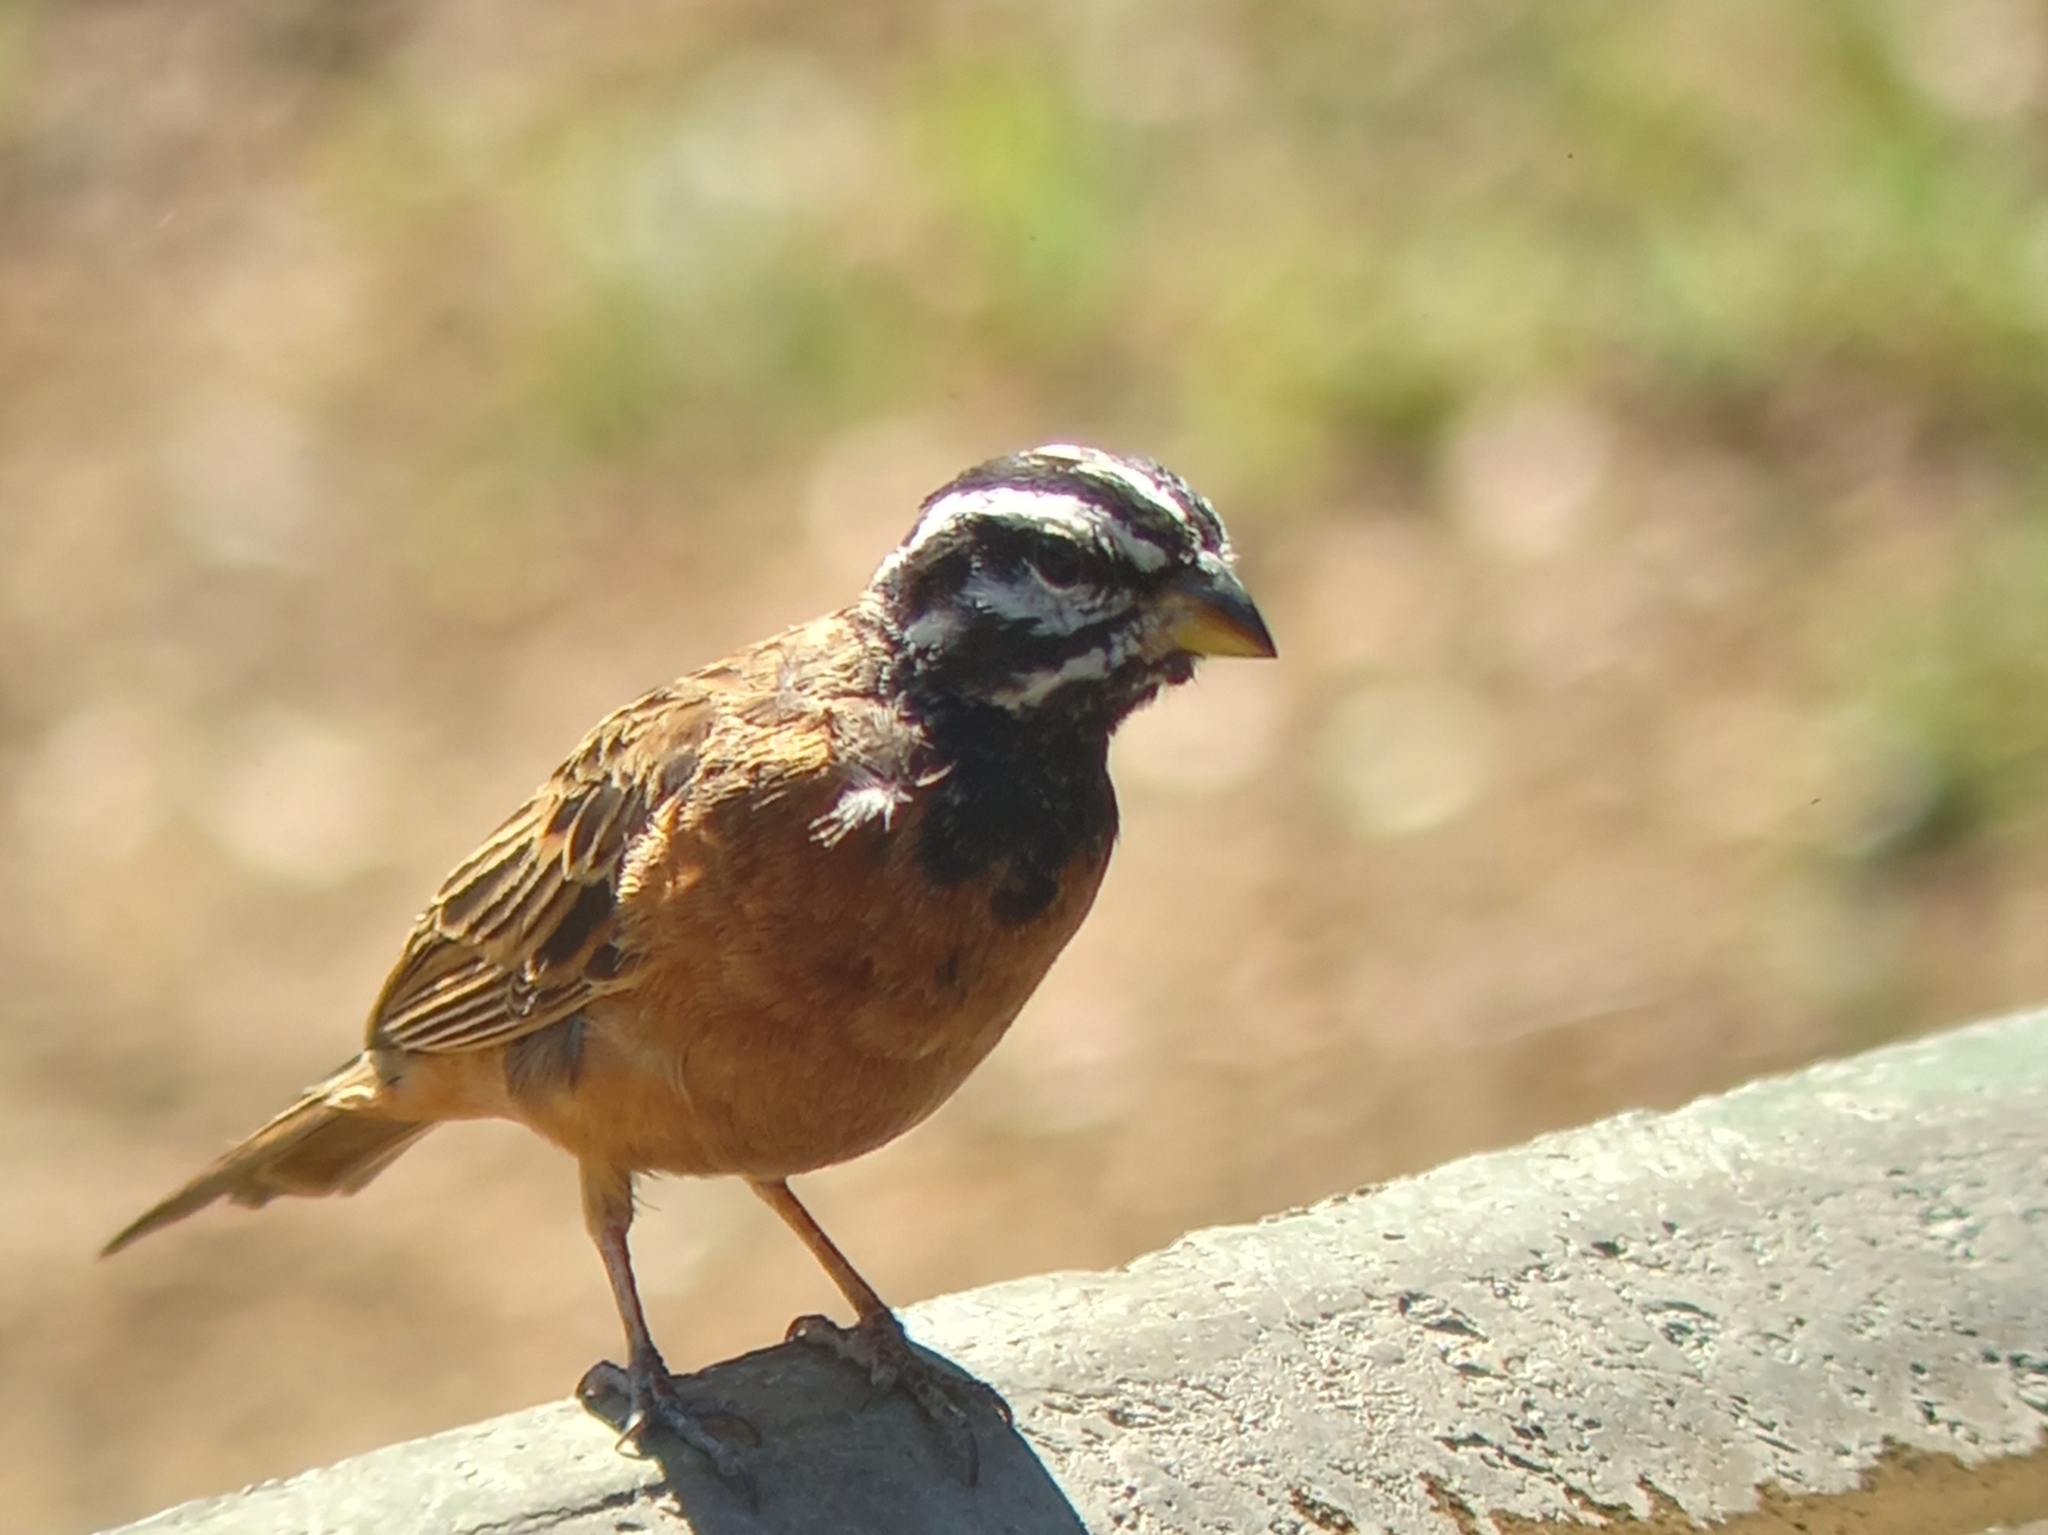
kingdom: Animalia
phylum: Chordata
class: Aves
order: Passeriformes
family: Emberizidae
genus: Emberiza
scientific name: Emberiza tahapisi
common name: Cinnamon-breasted bunting
